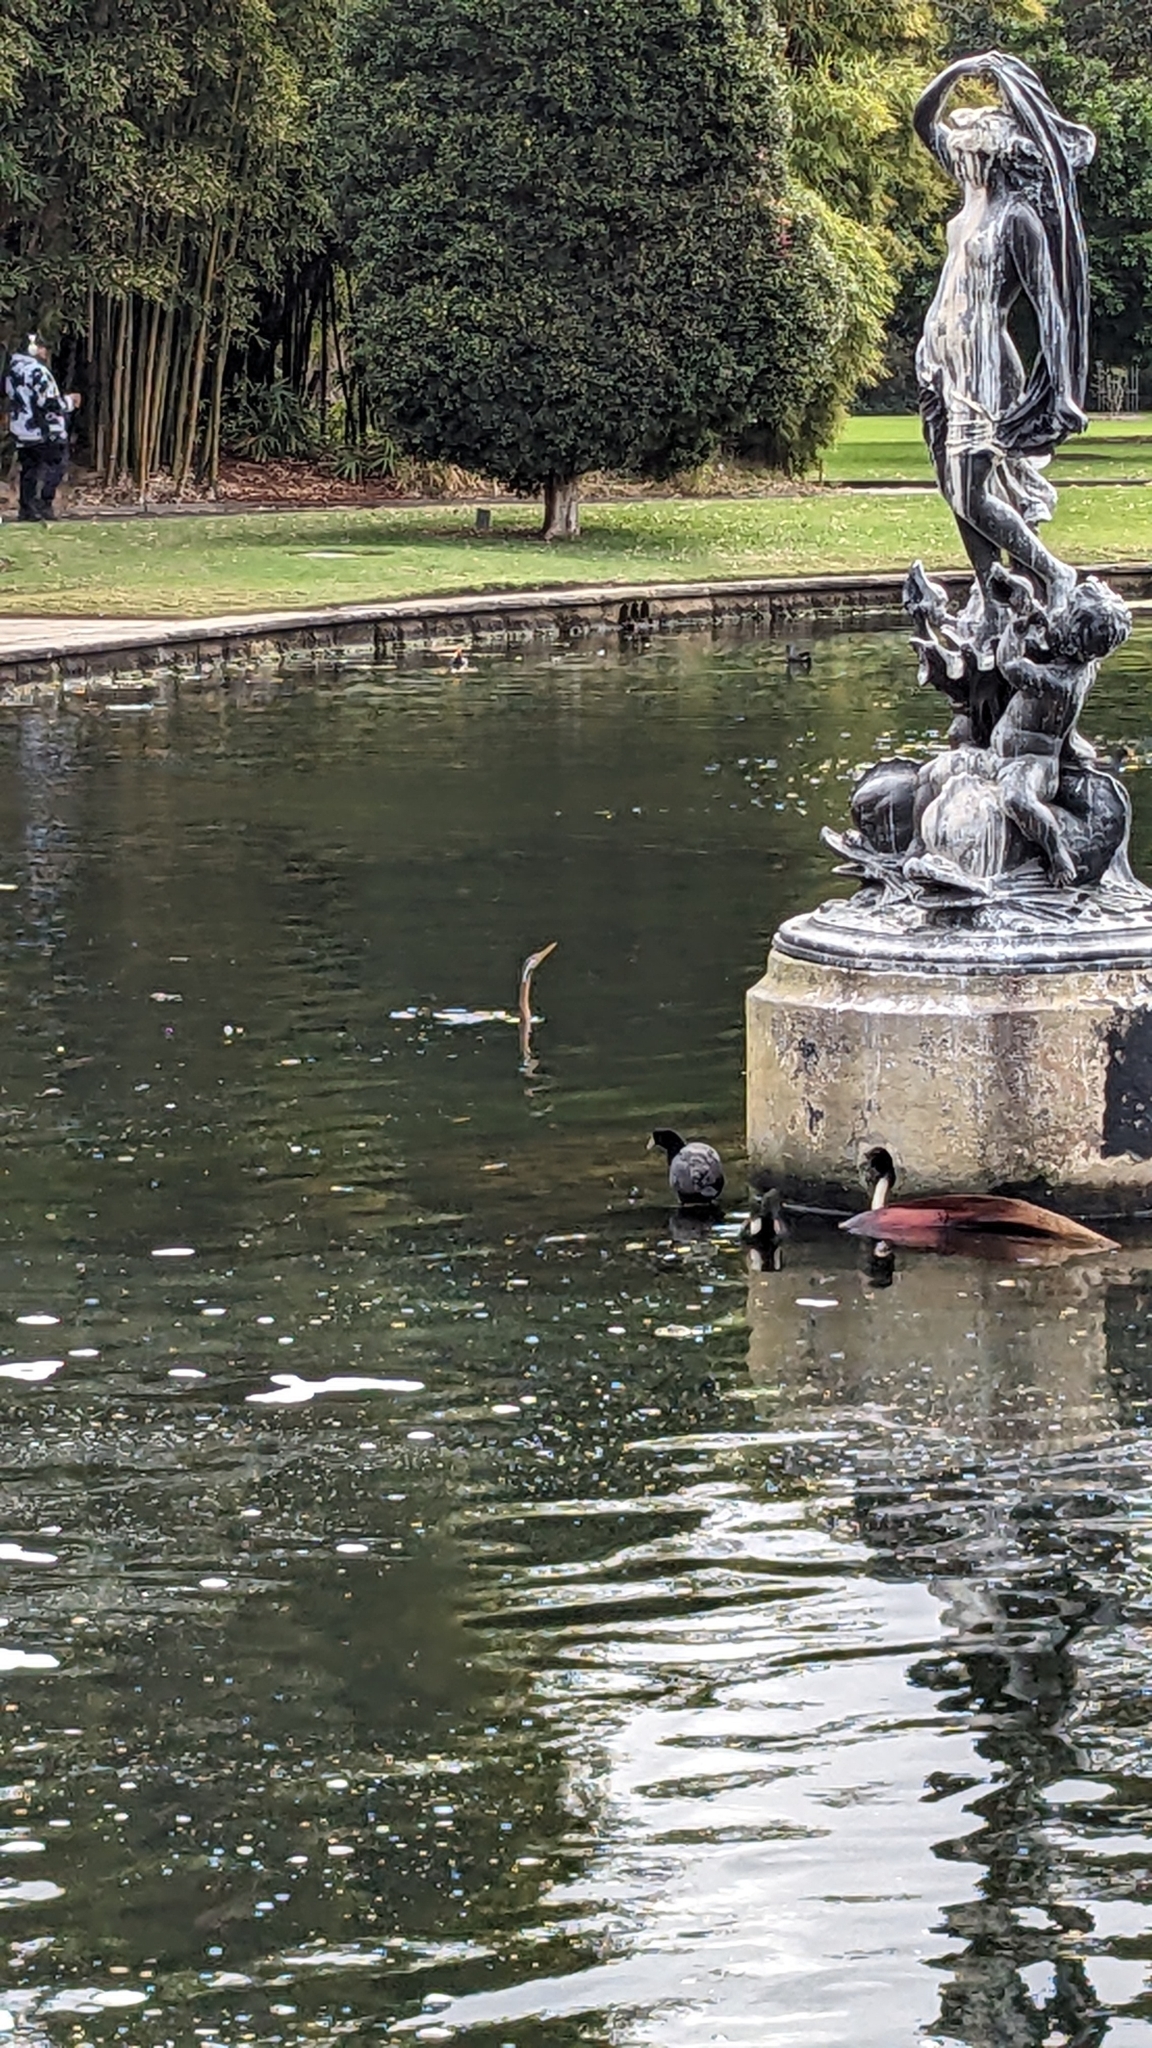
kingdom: Animalia
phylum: Chordata
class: Aves
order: Suliformes
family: Anhingidae
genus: Anhinga
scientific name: Anhinga novaehollandiae
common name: Australasian darter
